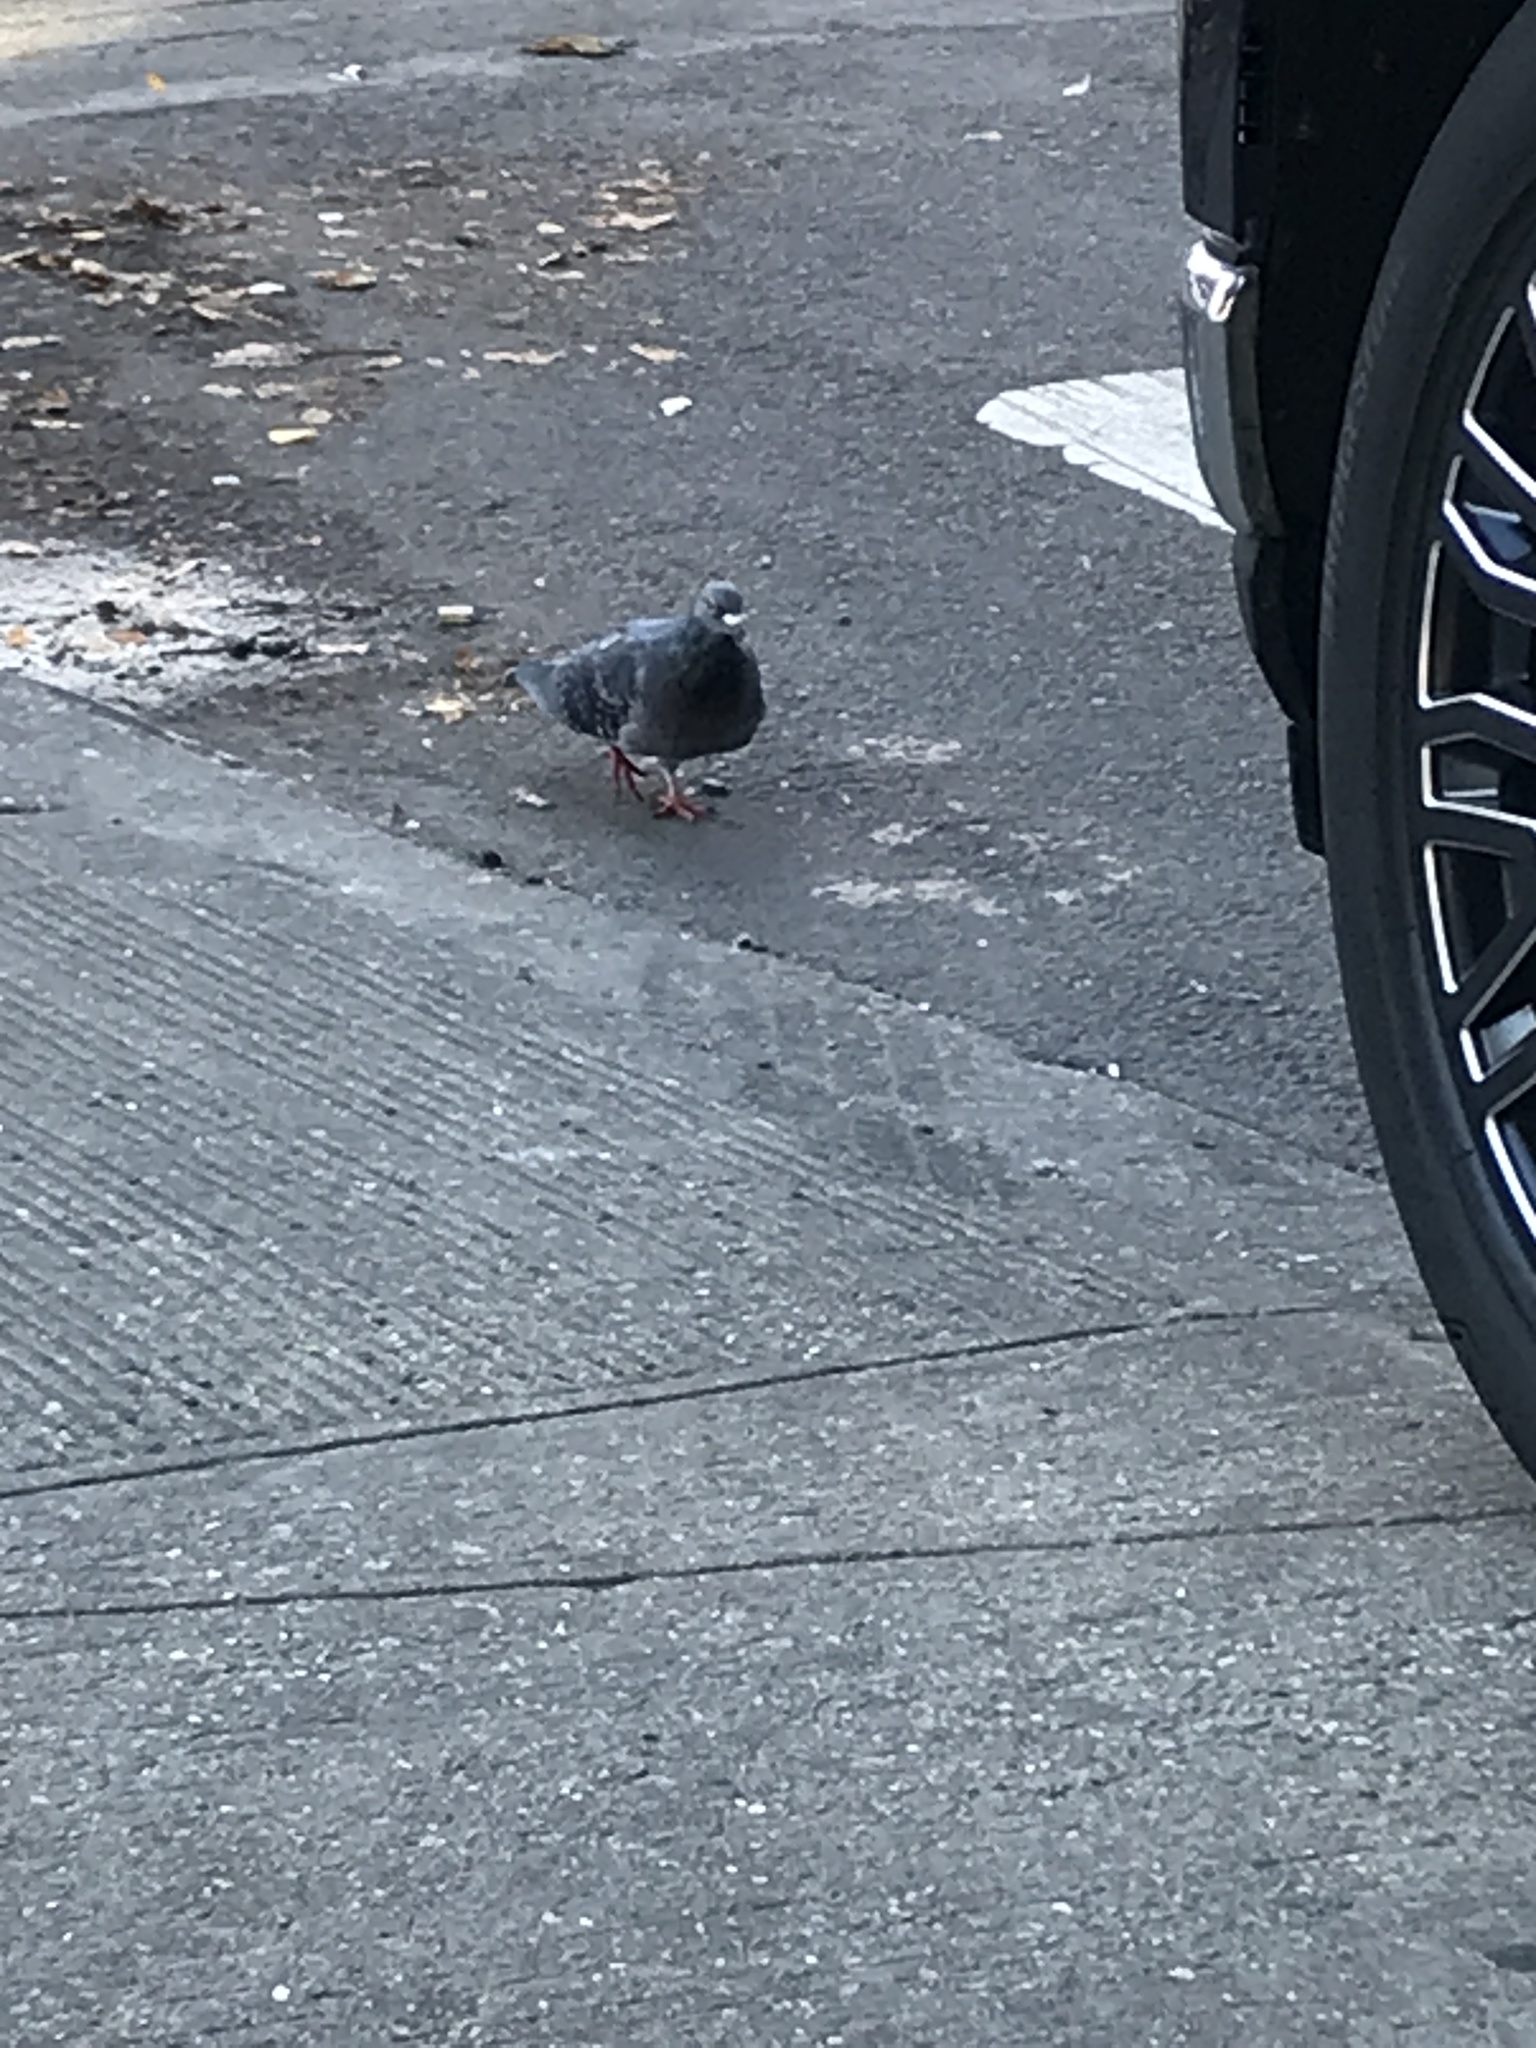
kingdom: Animalia
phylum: Chordata
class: Aves
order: Columbiformes
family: Columbidae
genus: Columba
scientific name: Columba livia
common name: Rock pigeon
